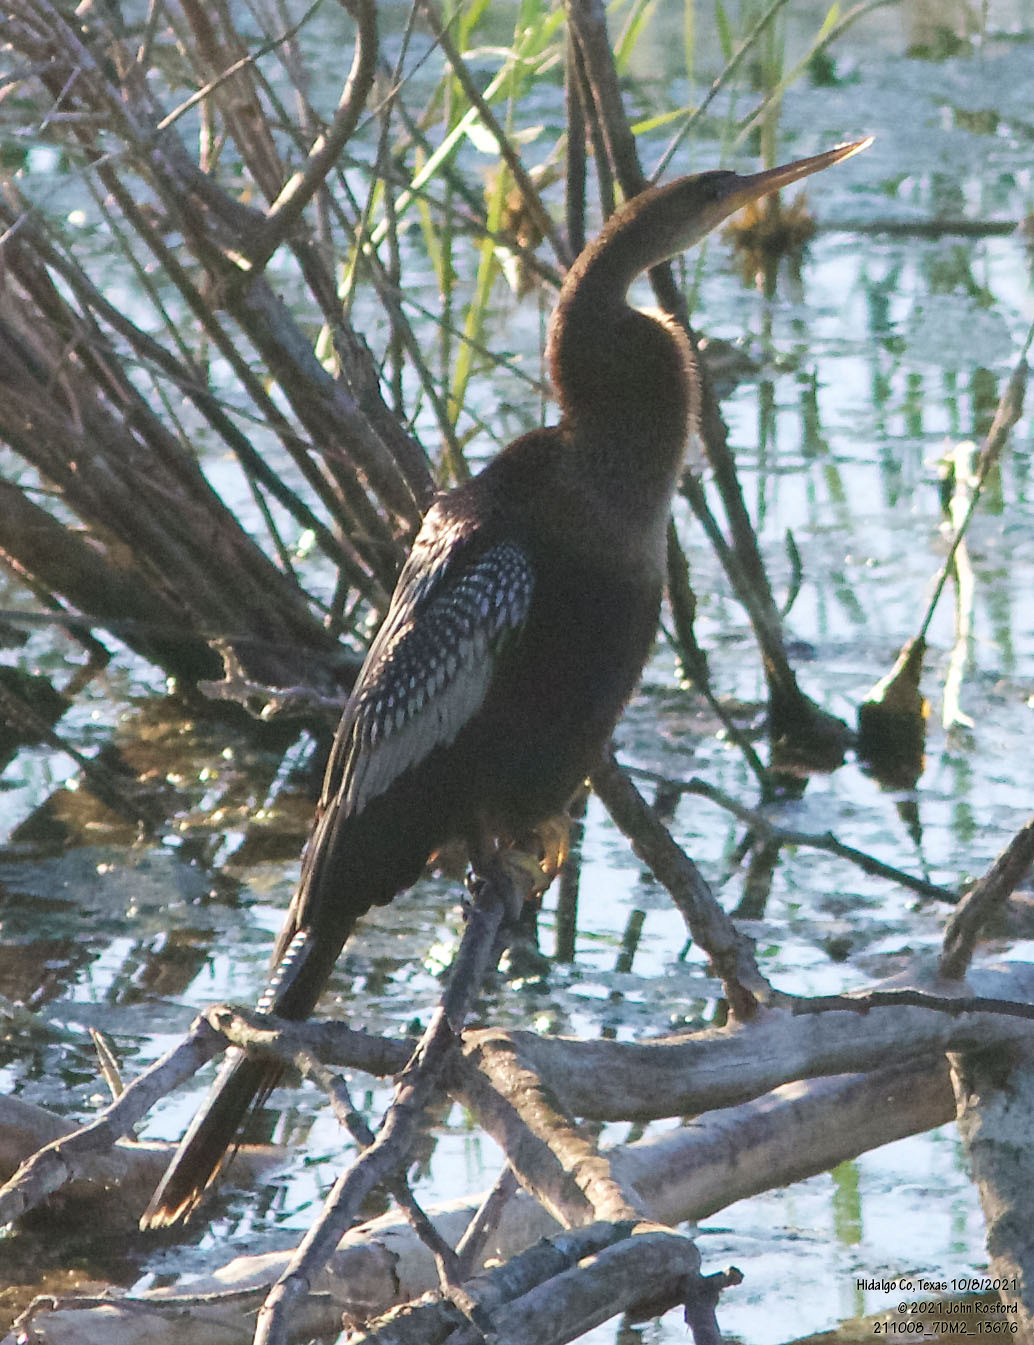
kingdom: Animalia
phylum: Chordata
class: Aves
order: Suliformes
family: Anhingidae
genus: Anhinga
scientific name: Anhinga anhinga
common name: Anhinga
